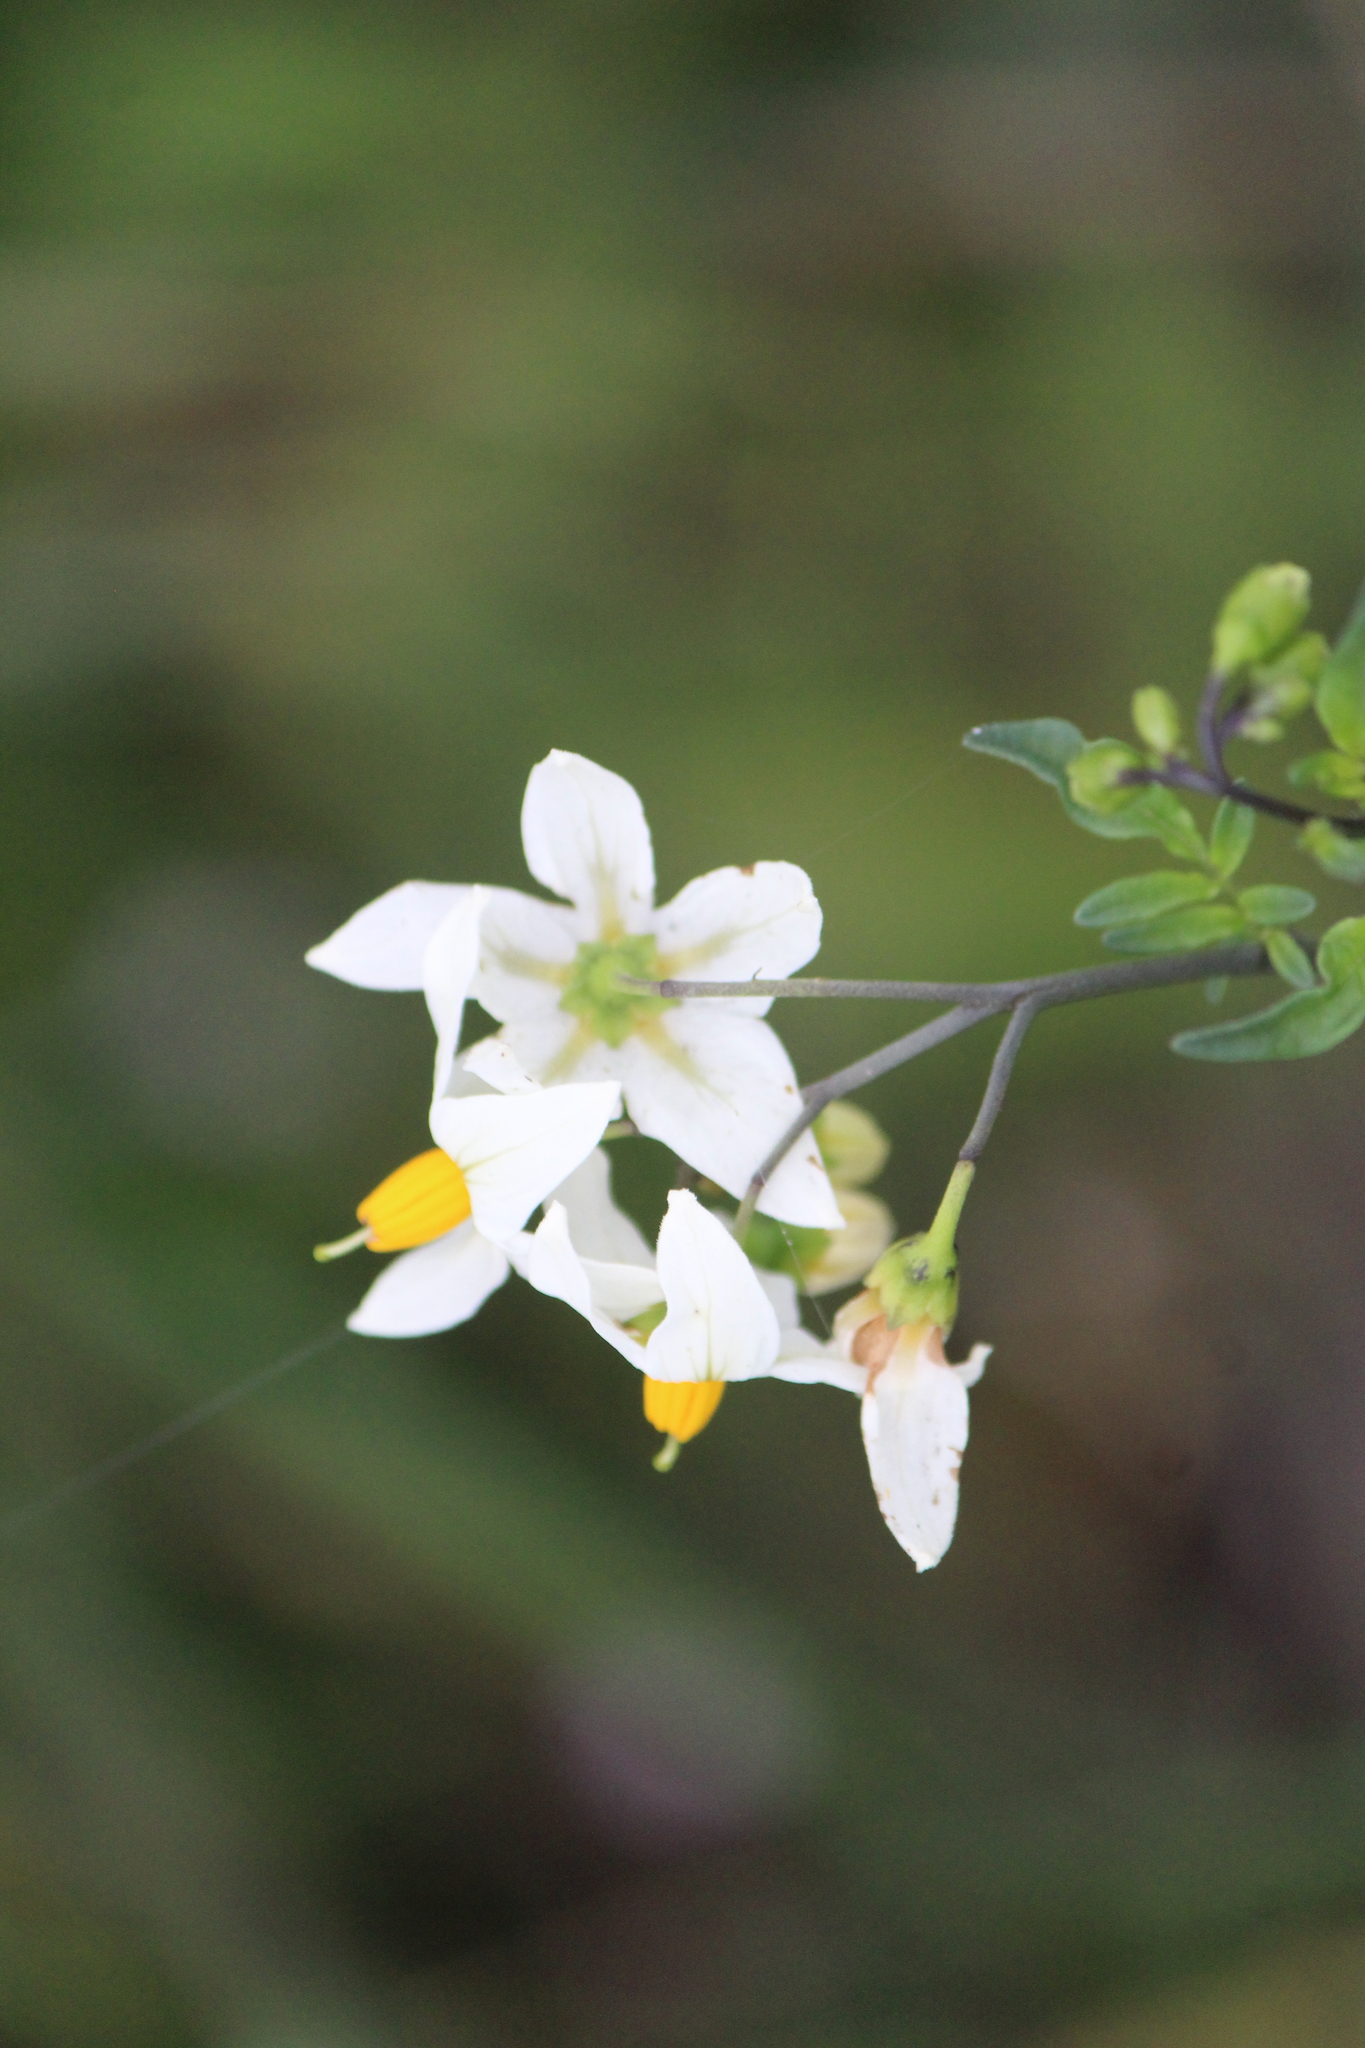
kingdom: Plantae
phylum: Tracheophyta
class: Magnoliopsida
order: Solanales
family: Solanaceae
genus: Solanum
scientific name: Solanum sambucinum
